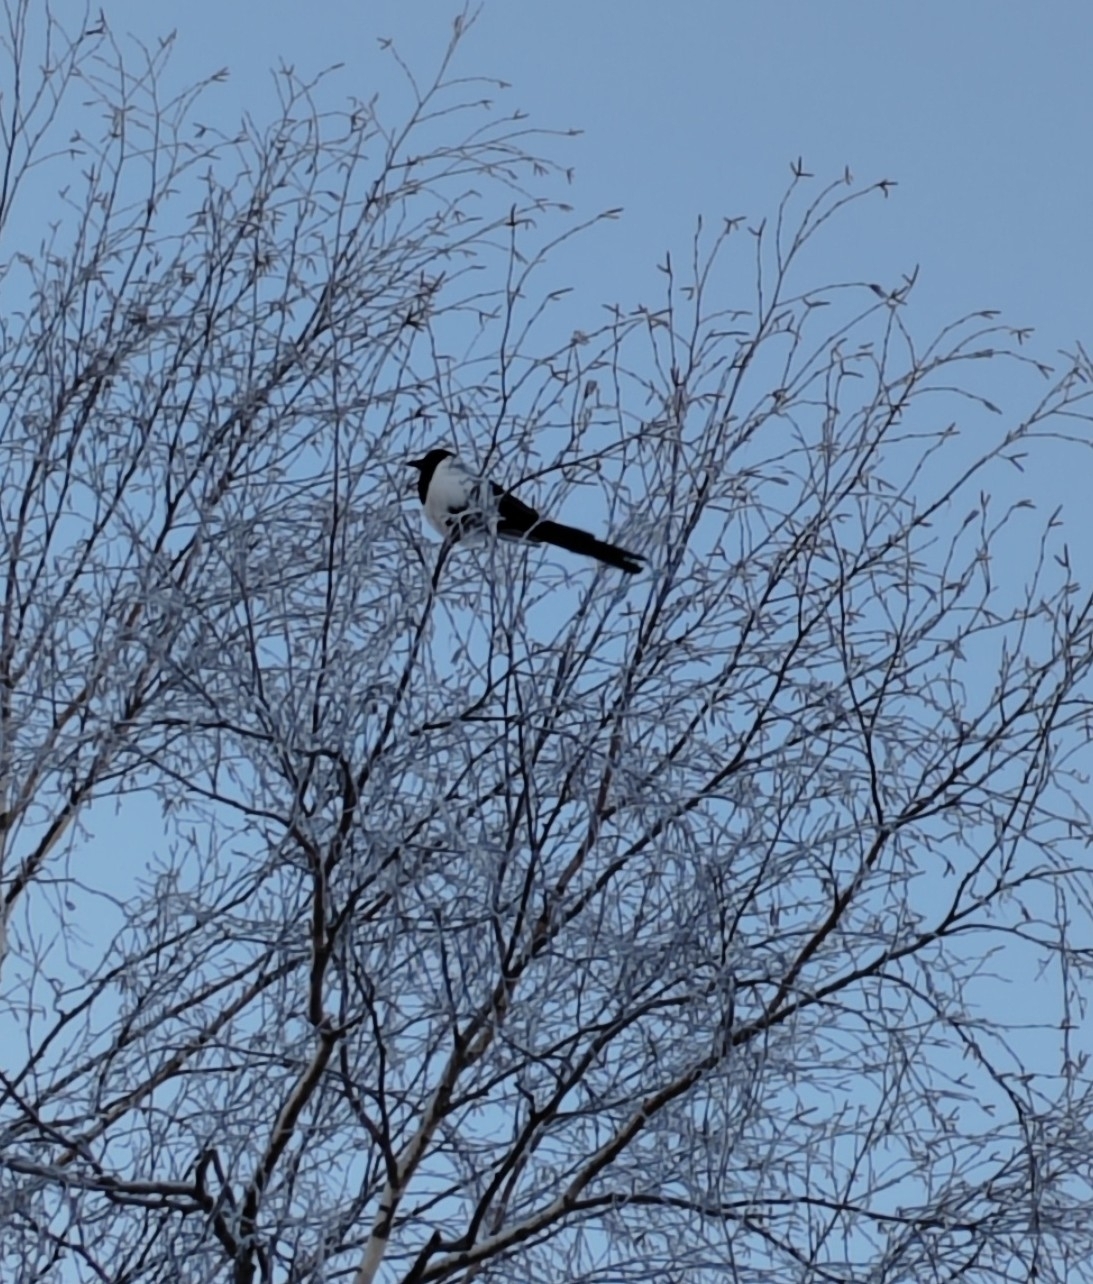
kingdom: Animalia
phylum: Chordata
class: Aves
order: Passeriformes
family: Corvidae
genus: Pica
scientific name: Pica pica
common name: Eurasian magpie
